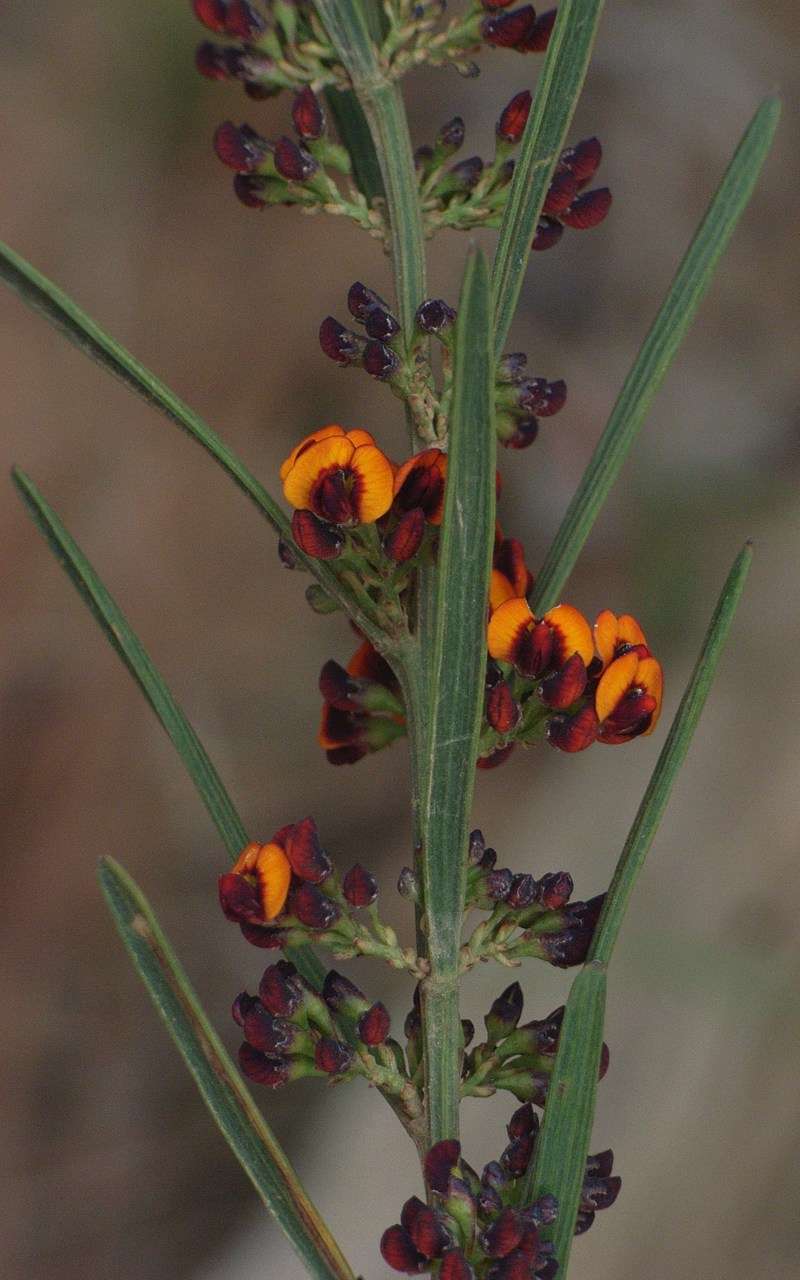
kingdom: Plantae
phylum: Tracheophyta
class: Magnoliopsida
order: Fabales
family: Fabaceae
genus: Daviesia
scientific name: Daviesia leptophylla
